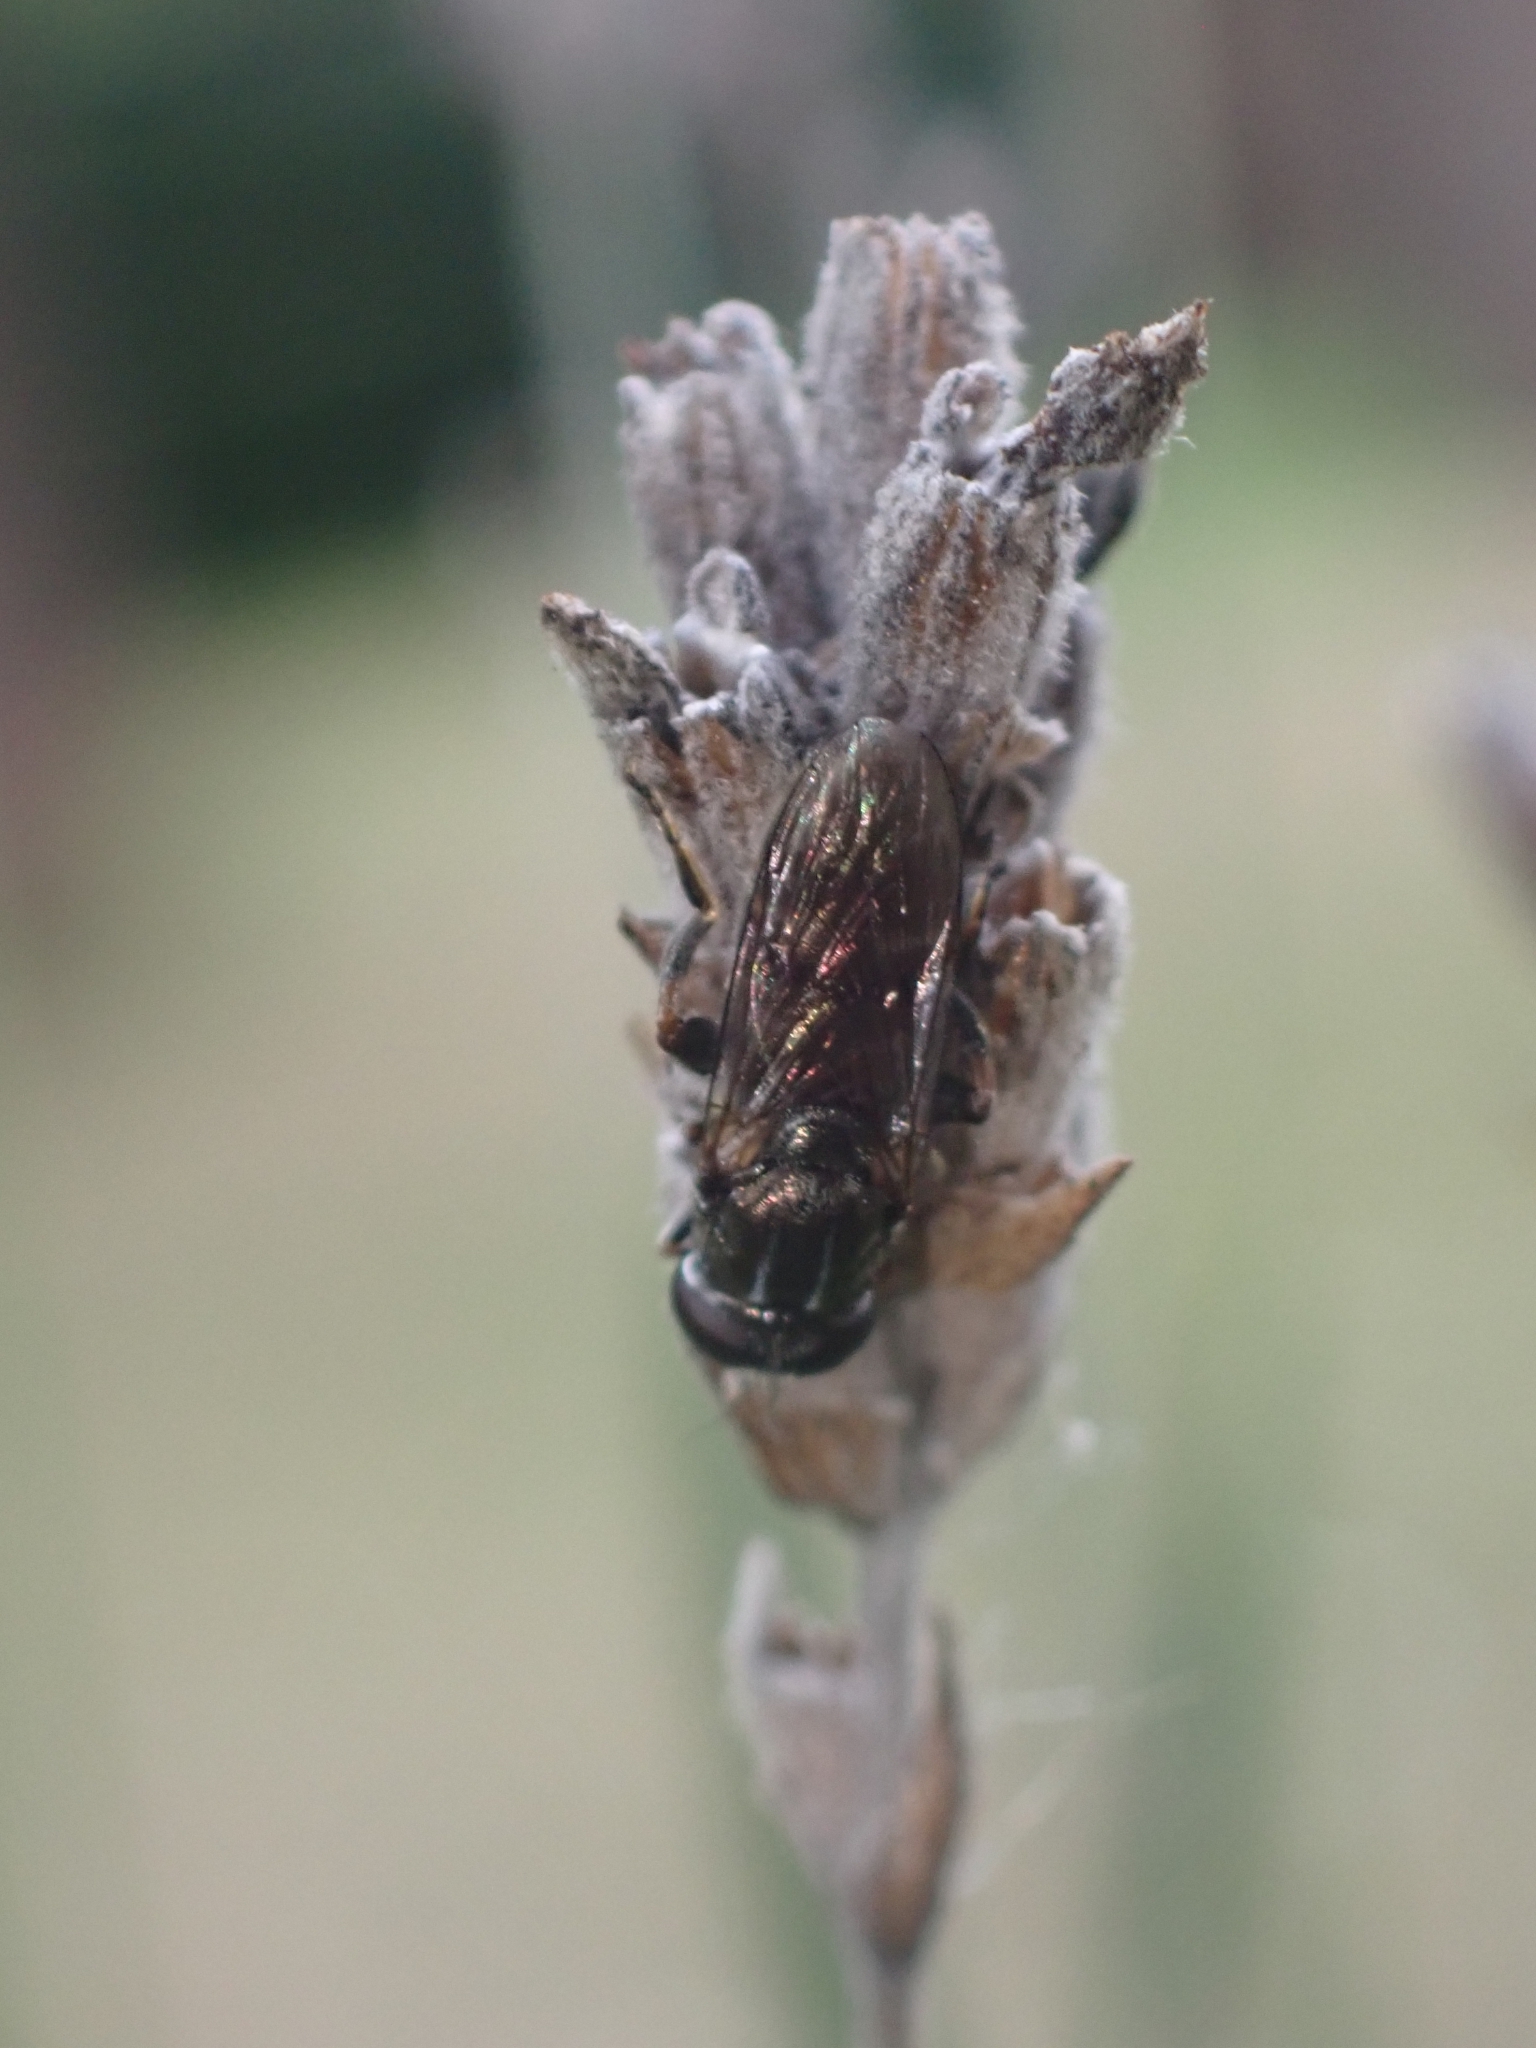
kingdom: Animalia
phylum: Arthropoda
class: Insecta
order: Diptera
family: Syrphidae
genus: Eumerus
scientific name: Eumerus
